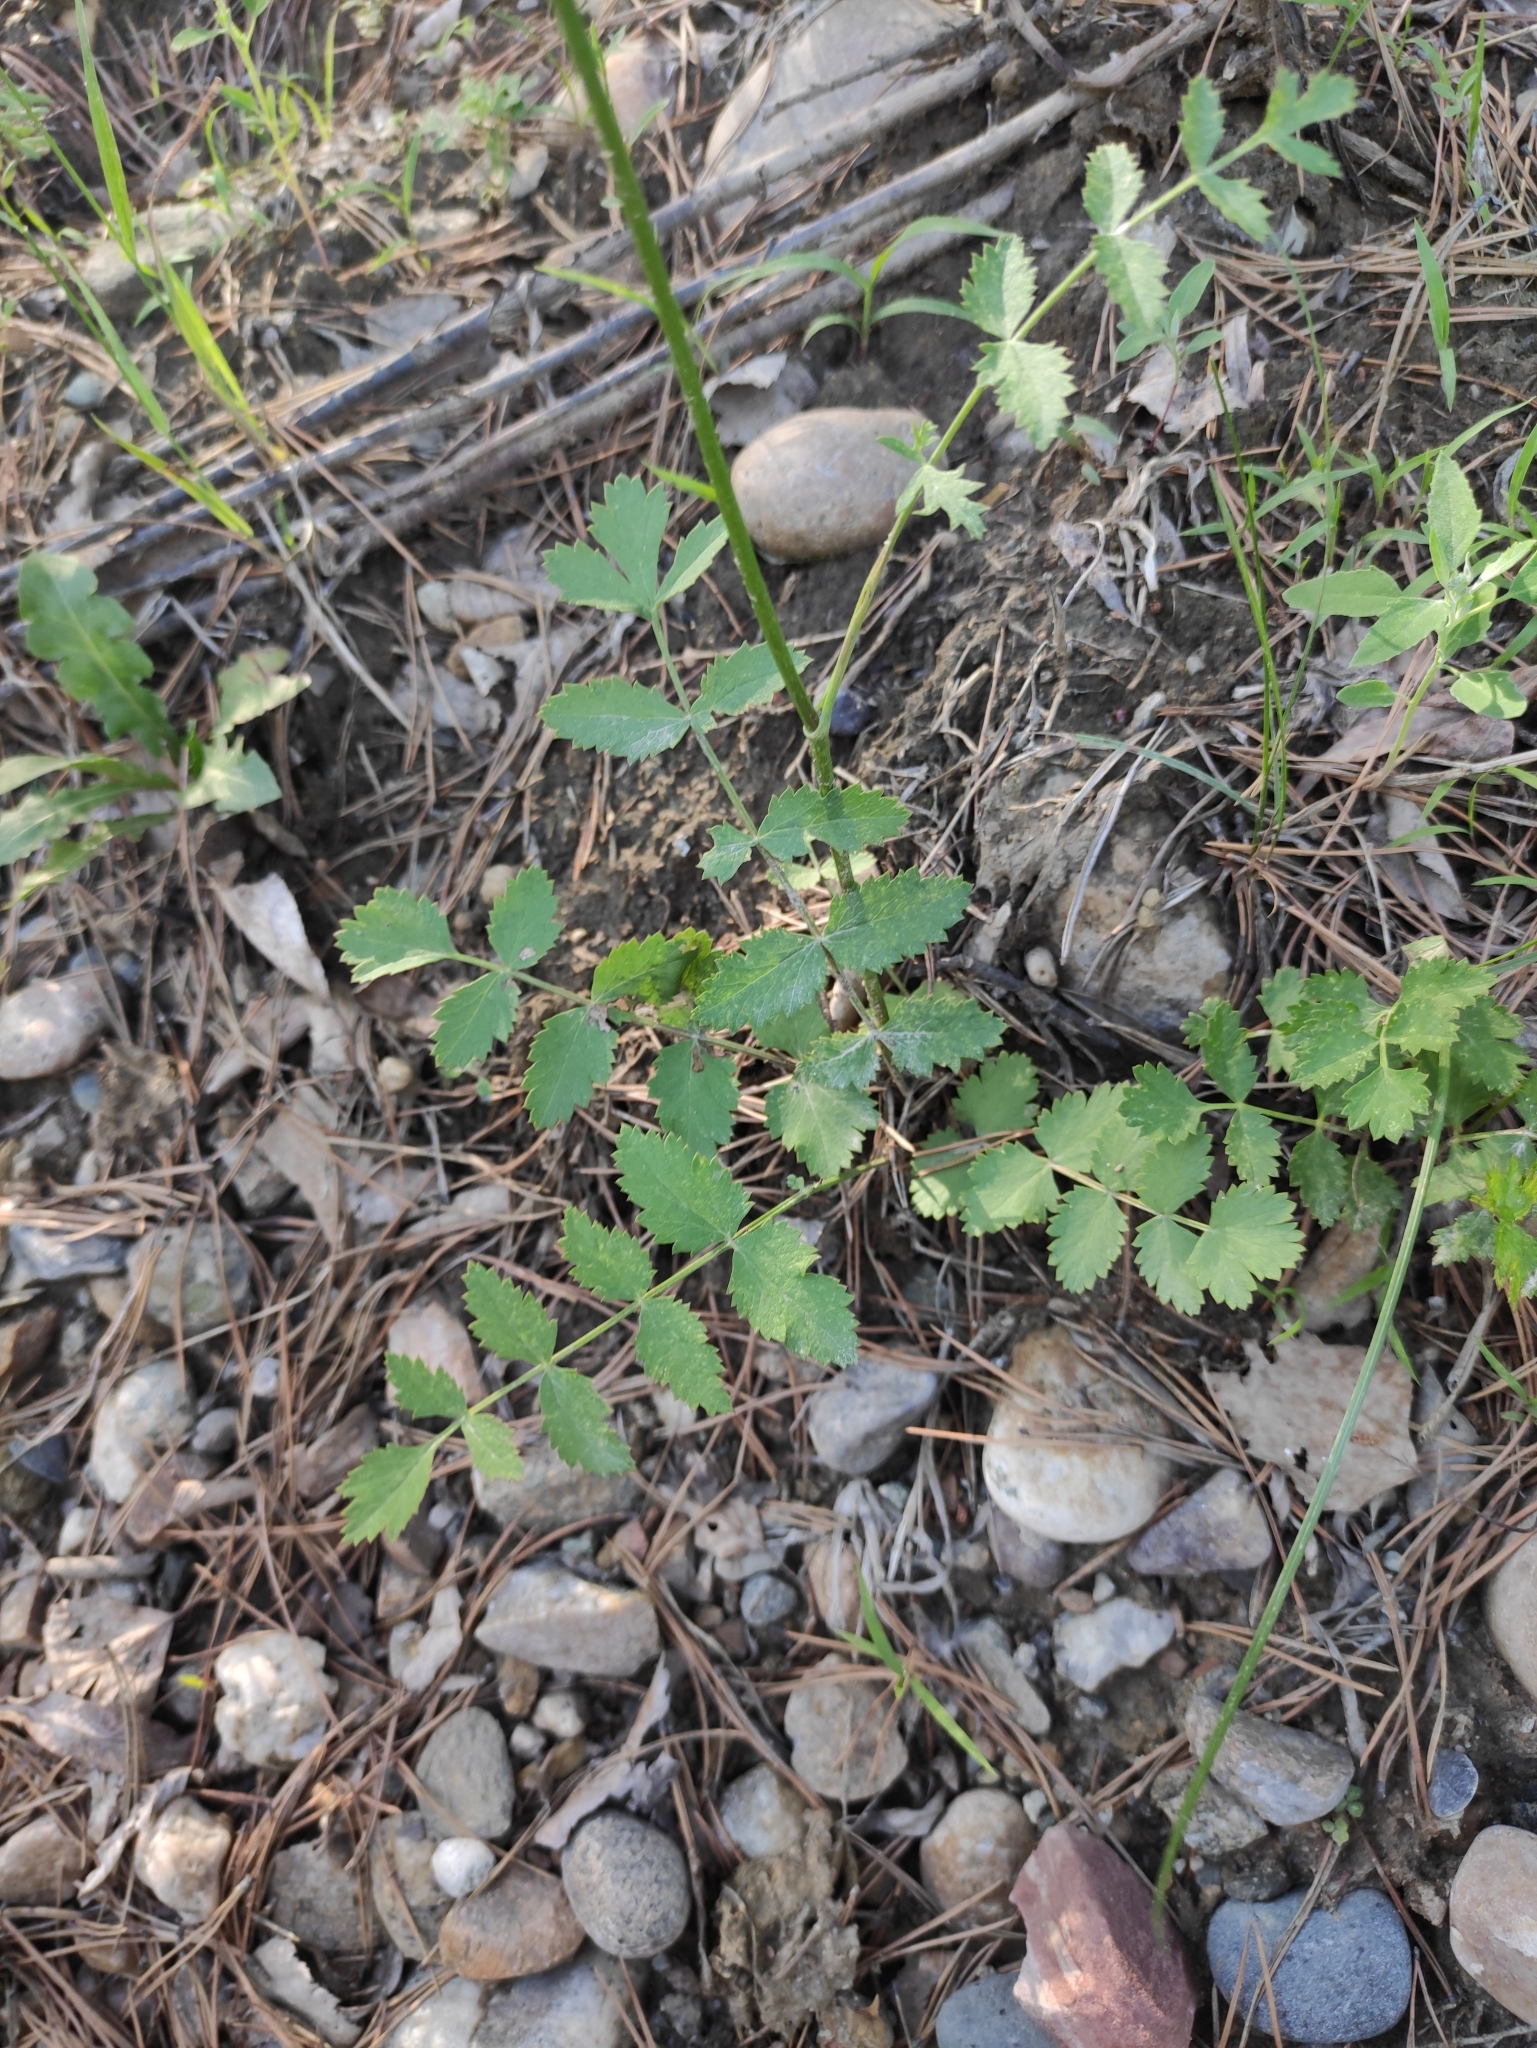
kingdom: Plantae
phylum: Tracheophyta
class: Magnoliopsida
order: Apiales
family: Apiaceae
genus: Pimpinella
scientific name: Pimpinella saxifraga
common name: Burnet-saxifrage
